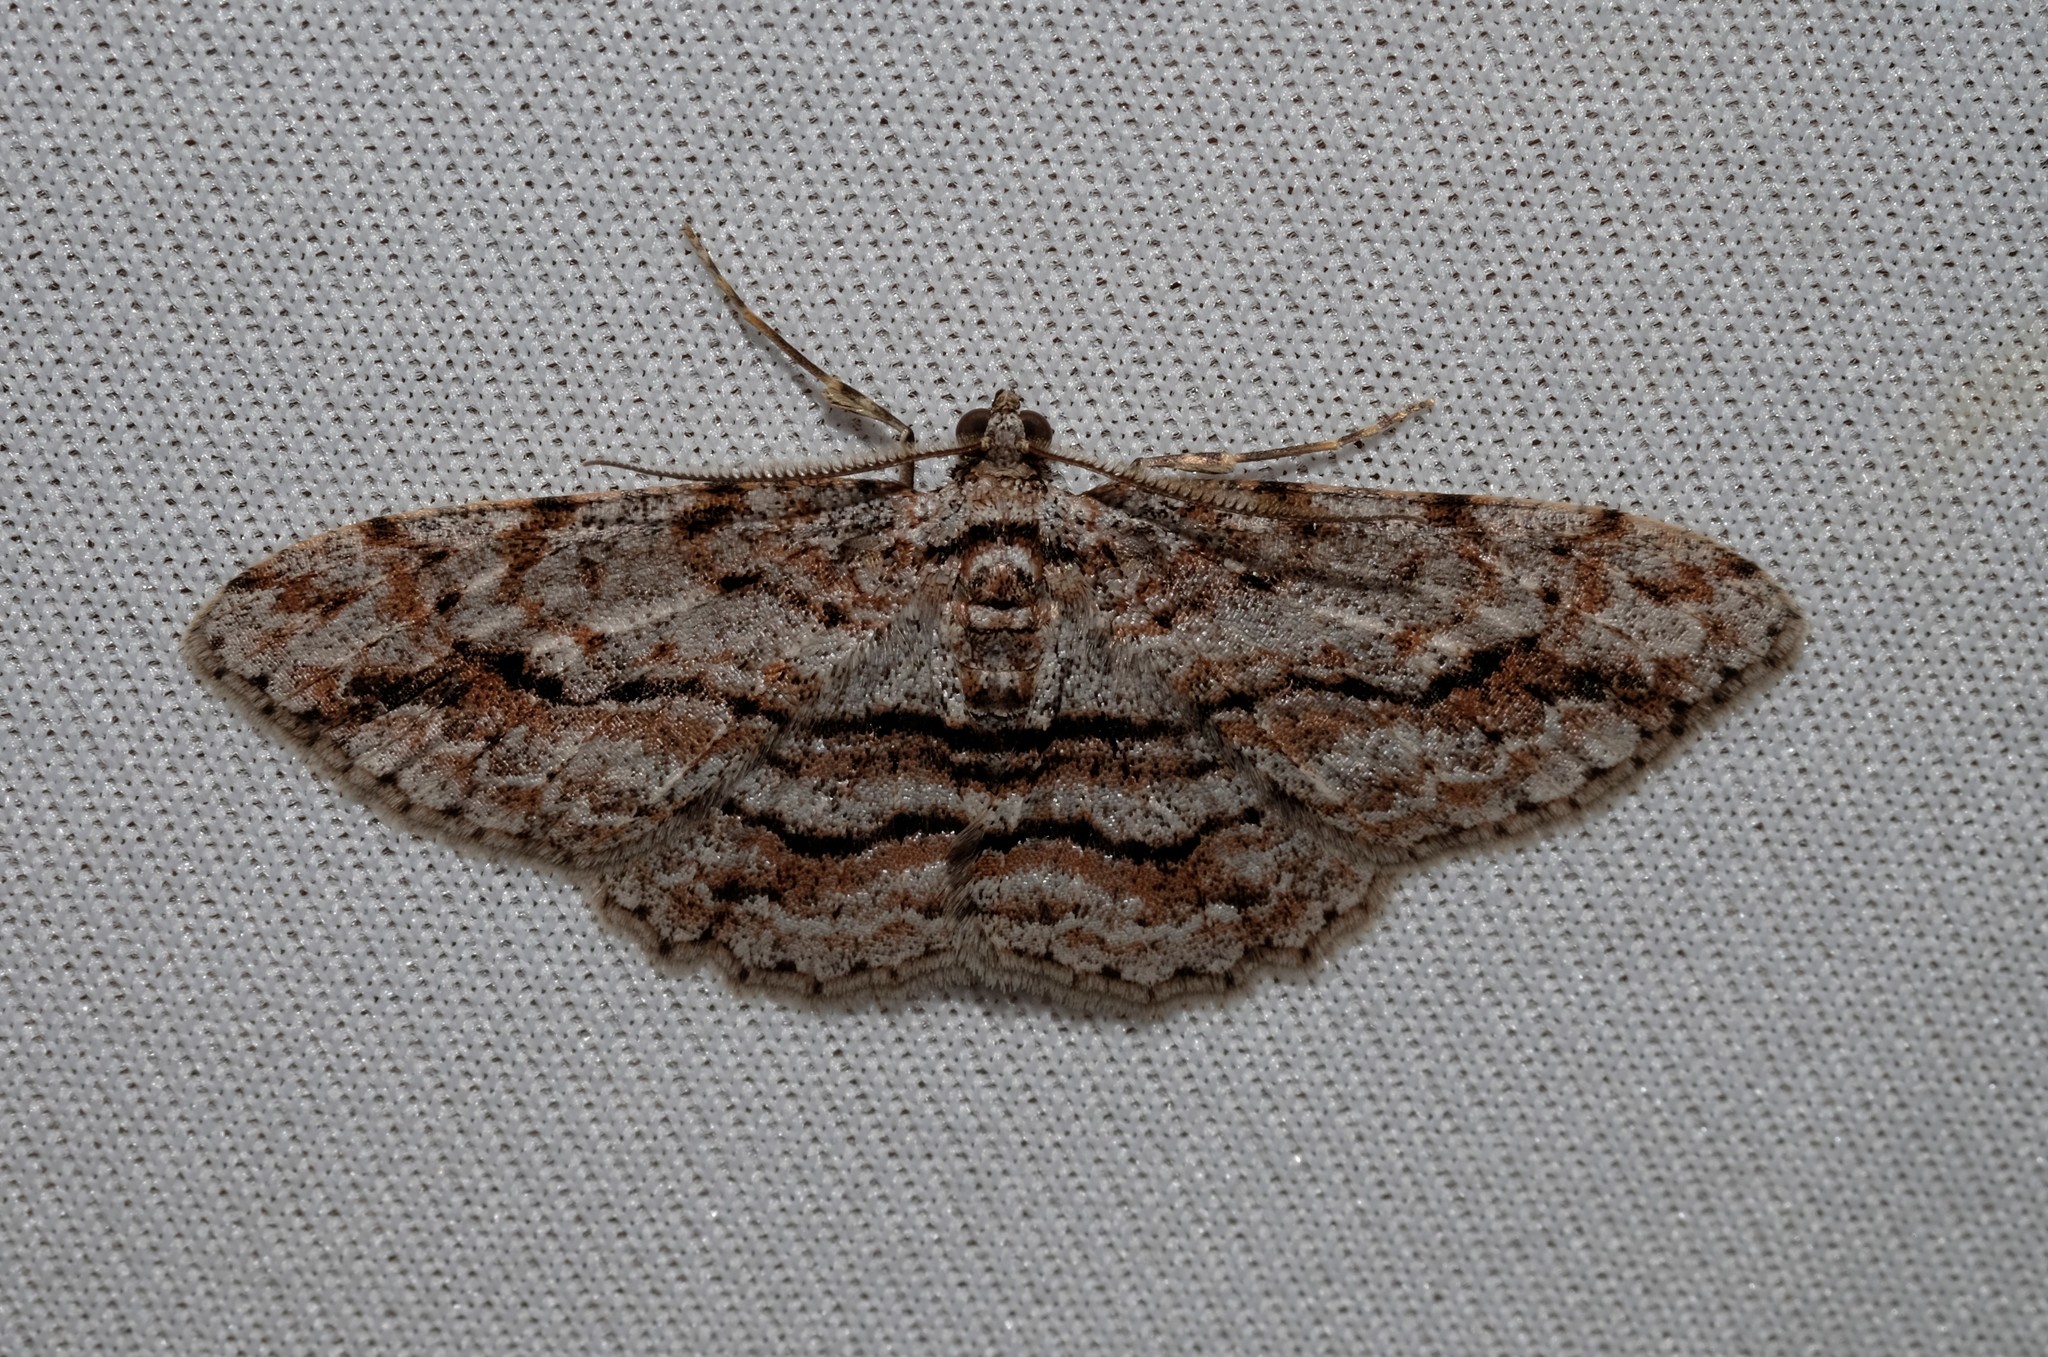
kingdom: Animalia
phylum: Arthropoda
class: Insecta
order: Lepidoptera
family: Geometridae
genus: Didymoctenia
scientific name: Didymoctenia exsuperata
